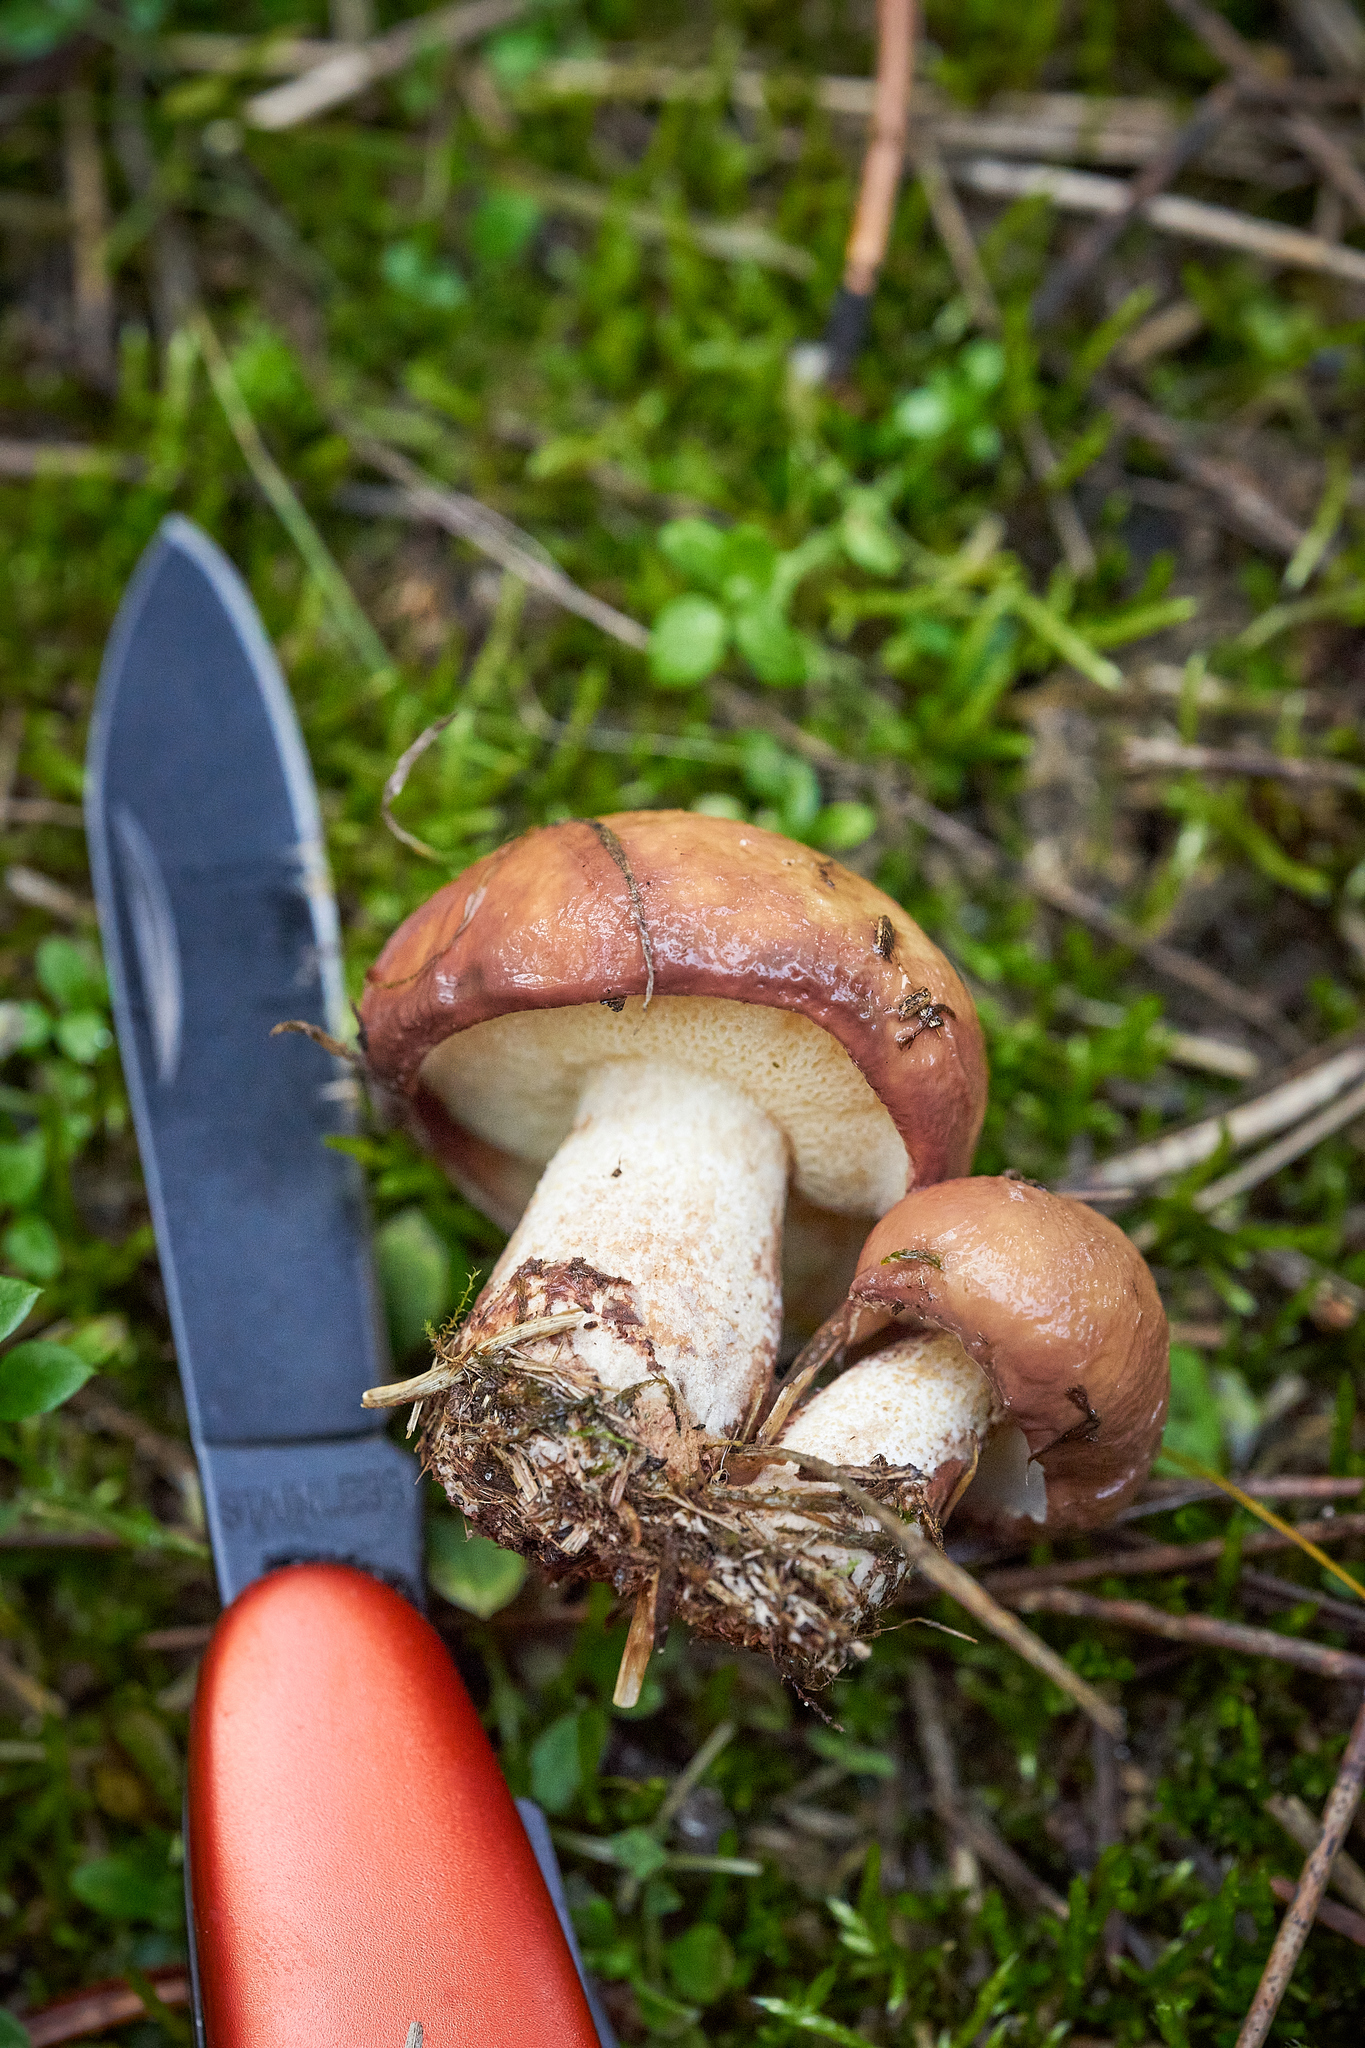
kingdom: Fungi
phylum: Basidiomycota
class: Agaricomycetes
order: Boletales
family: Suillaceae
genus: Suillus
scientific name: Suillus granulatus
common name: Weeping bolete
